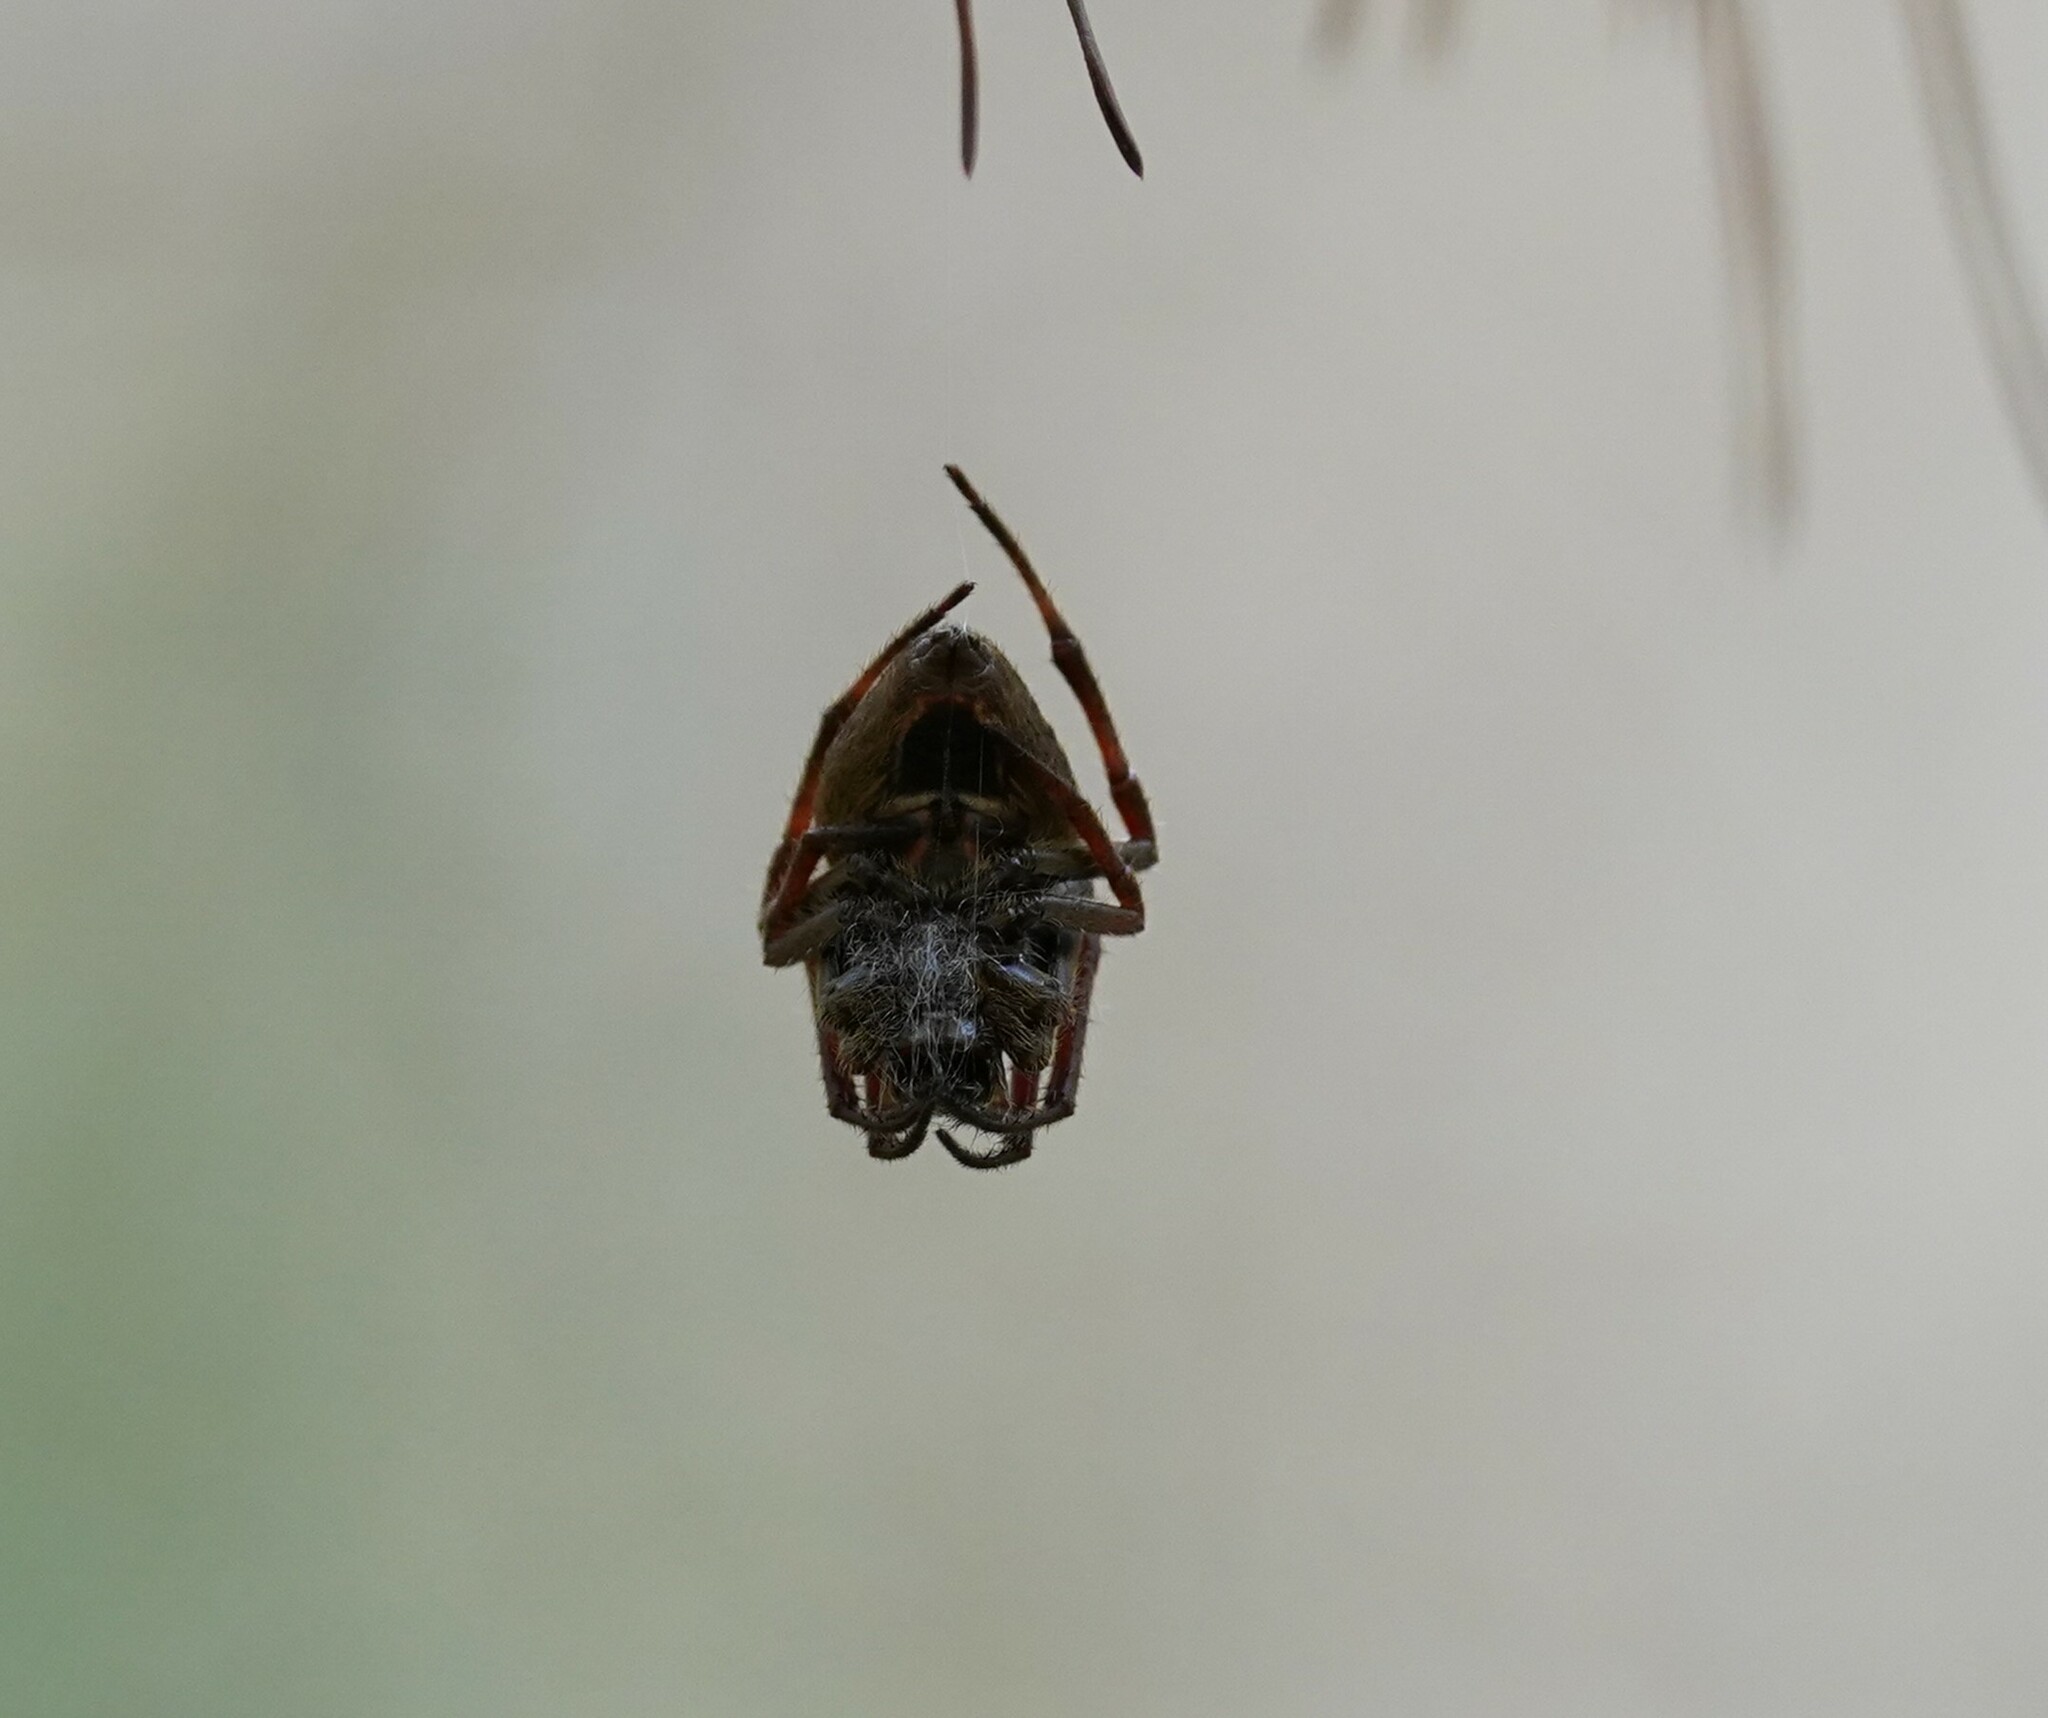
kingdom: Animalia
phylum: Arthropoda
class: Arachnida
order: Araneae
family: Araneidae
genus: Eriophora
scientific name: Eriophora ravilla
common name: Orb weavers
